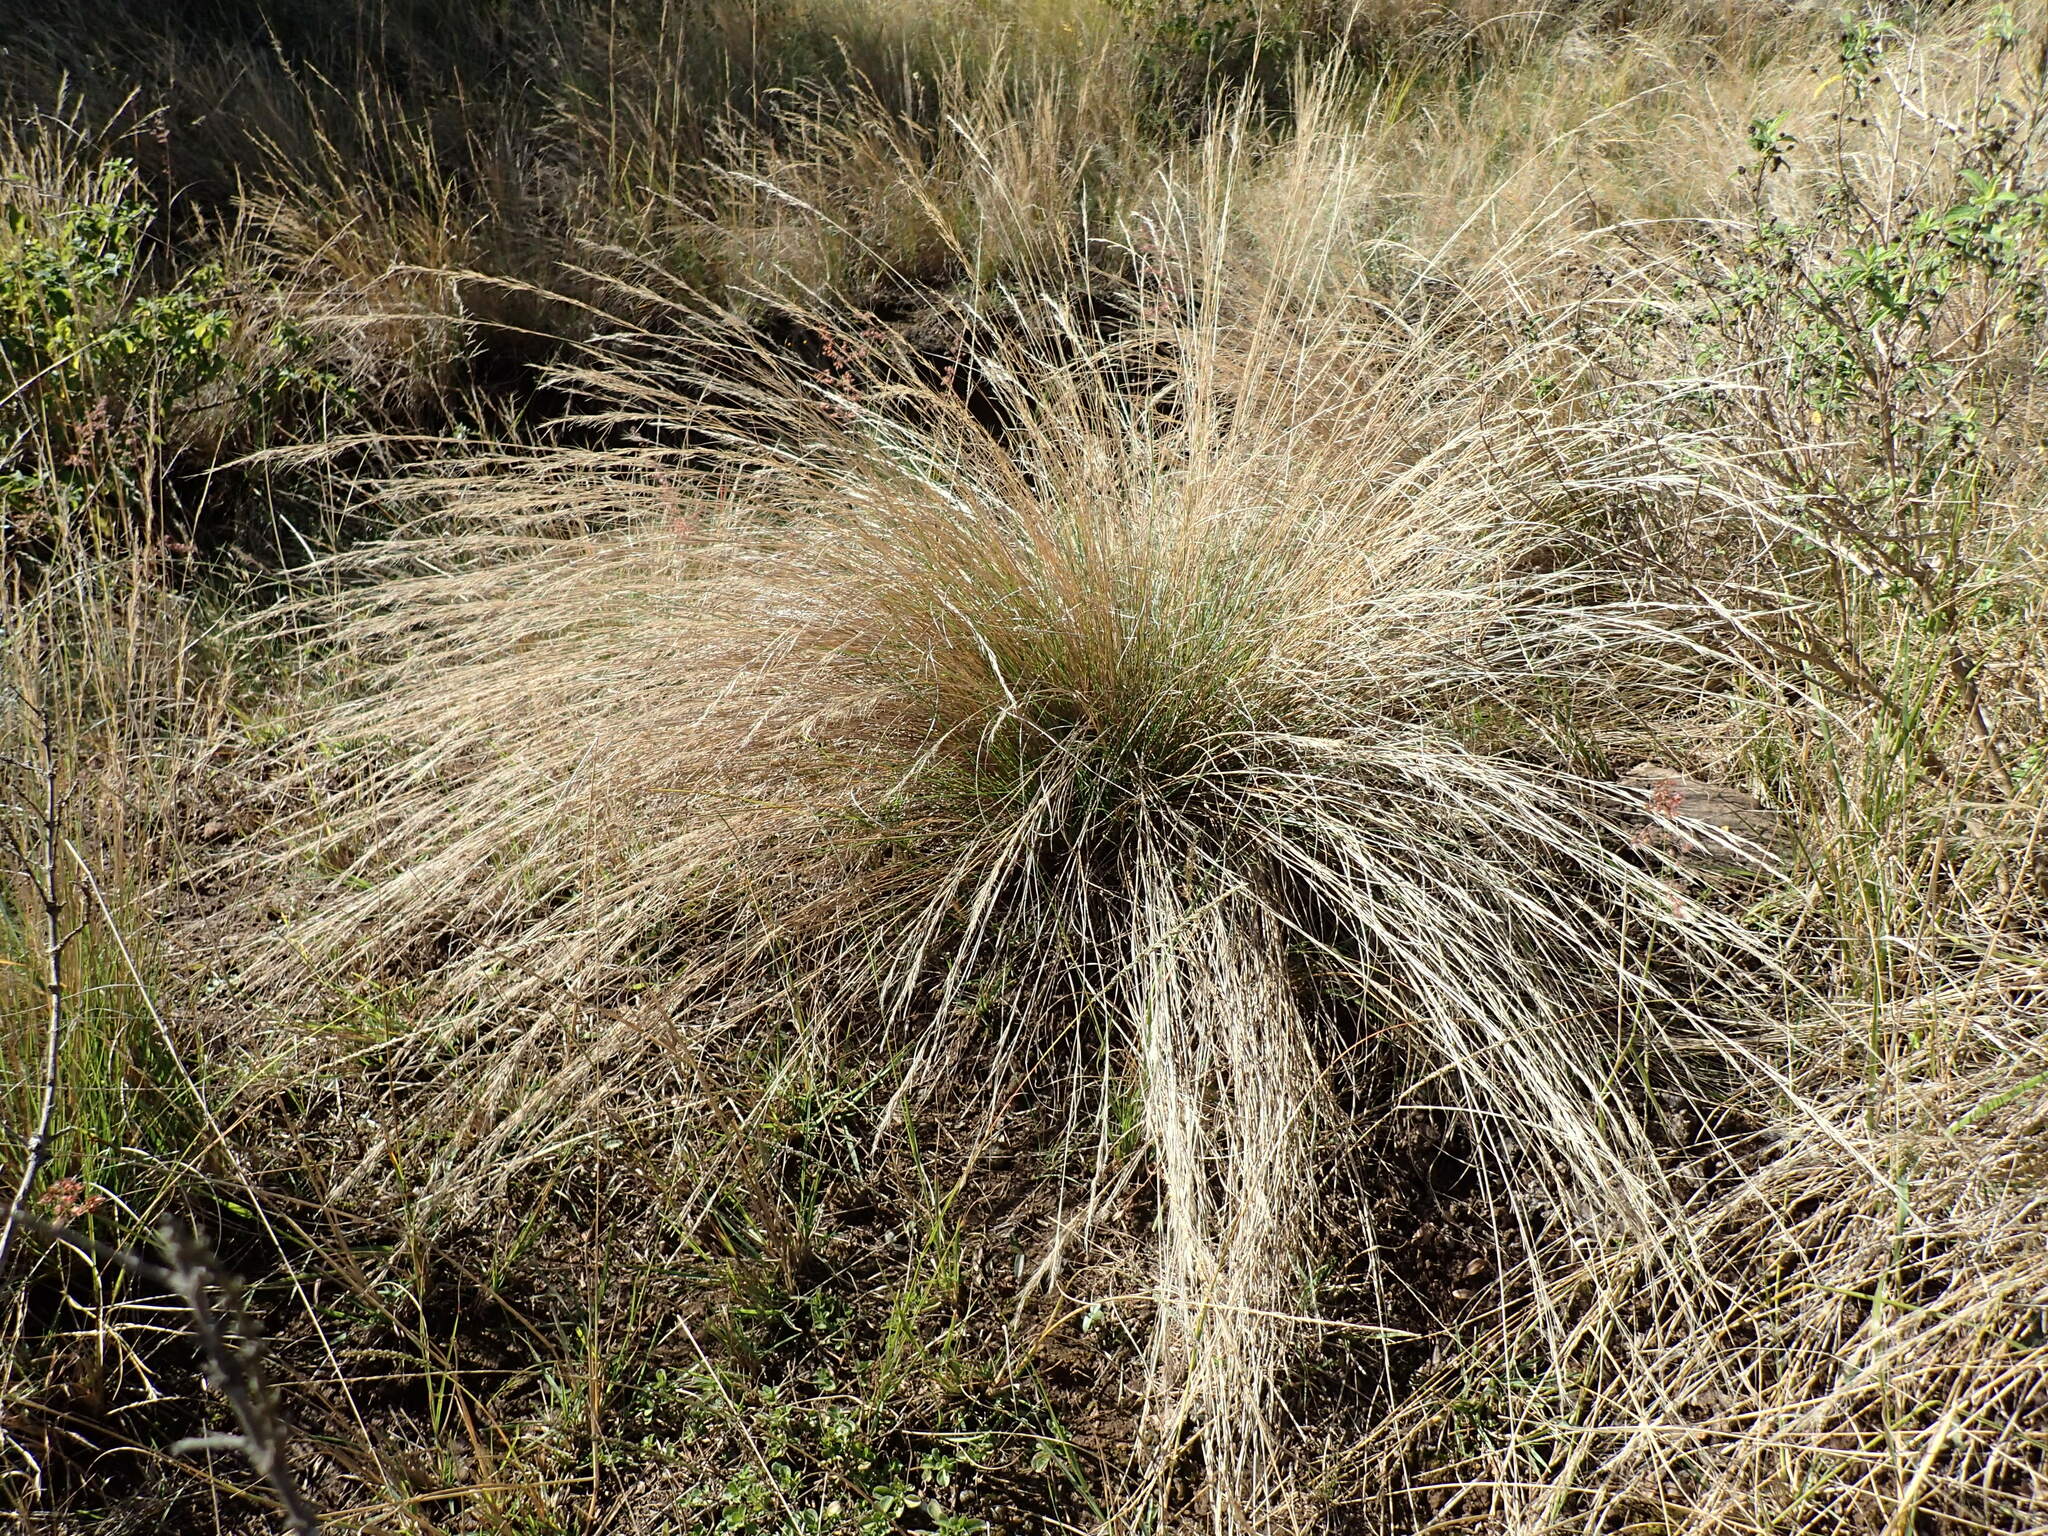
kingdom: Plantae
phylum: Tracheophyta
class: Liliopsida
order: Poales
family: Poaceae
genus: Aristida
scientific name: Aristida junciformis
